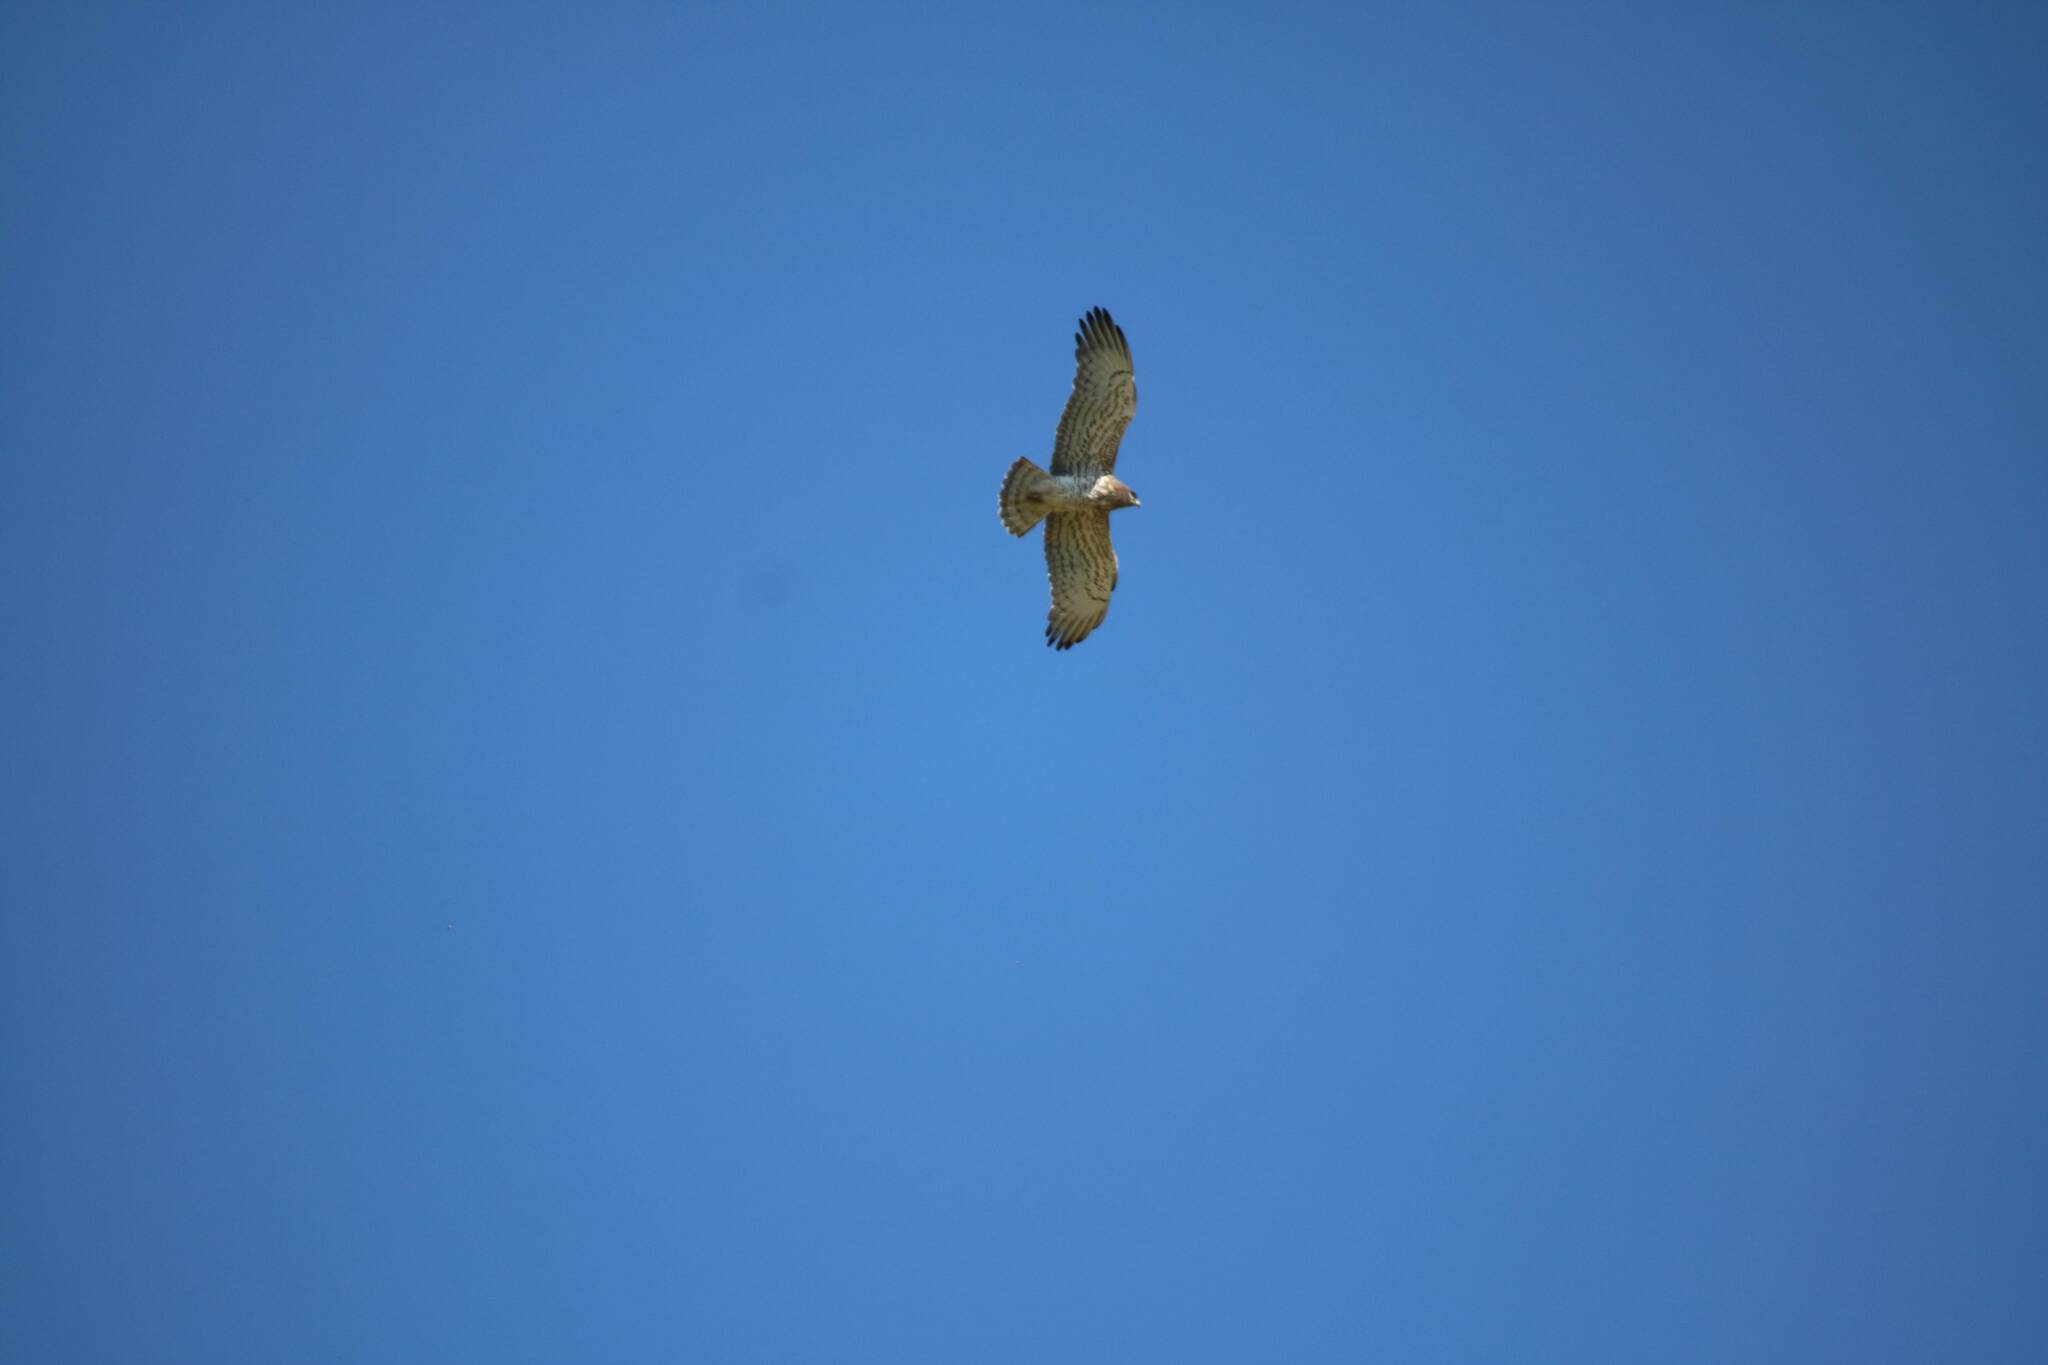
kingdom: Animalia
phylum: Chordata
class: Aves
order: Accipitriformes
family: Accipitridae
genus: Circaetus
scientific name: Circaetus gallicus
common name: Short-toed snake eagle
